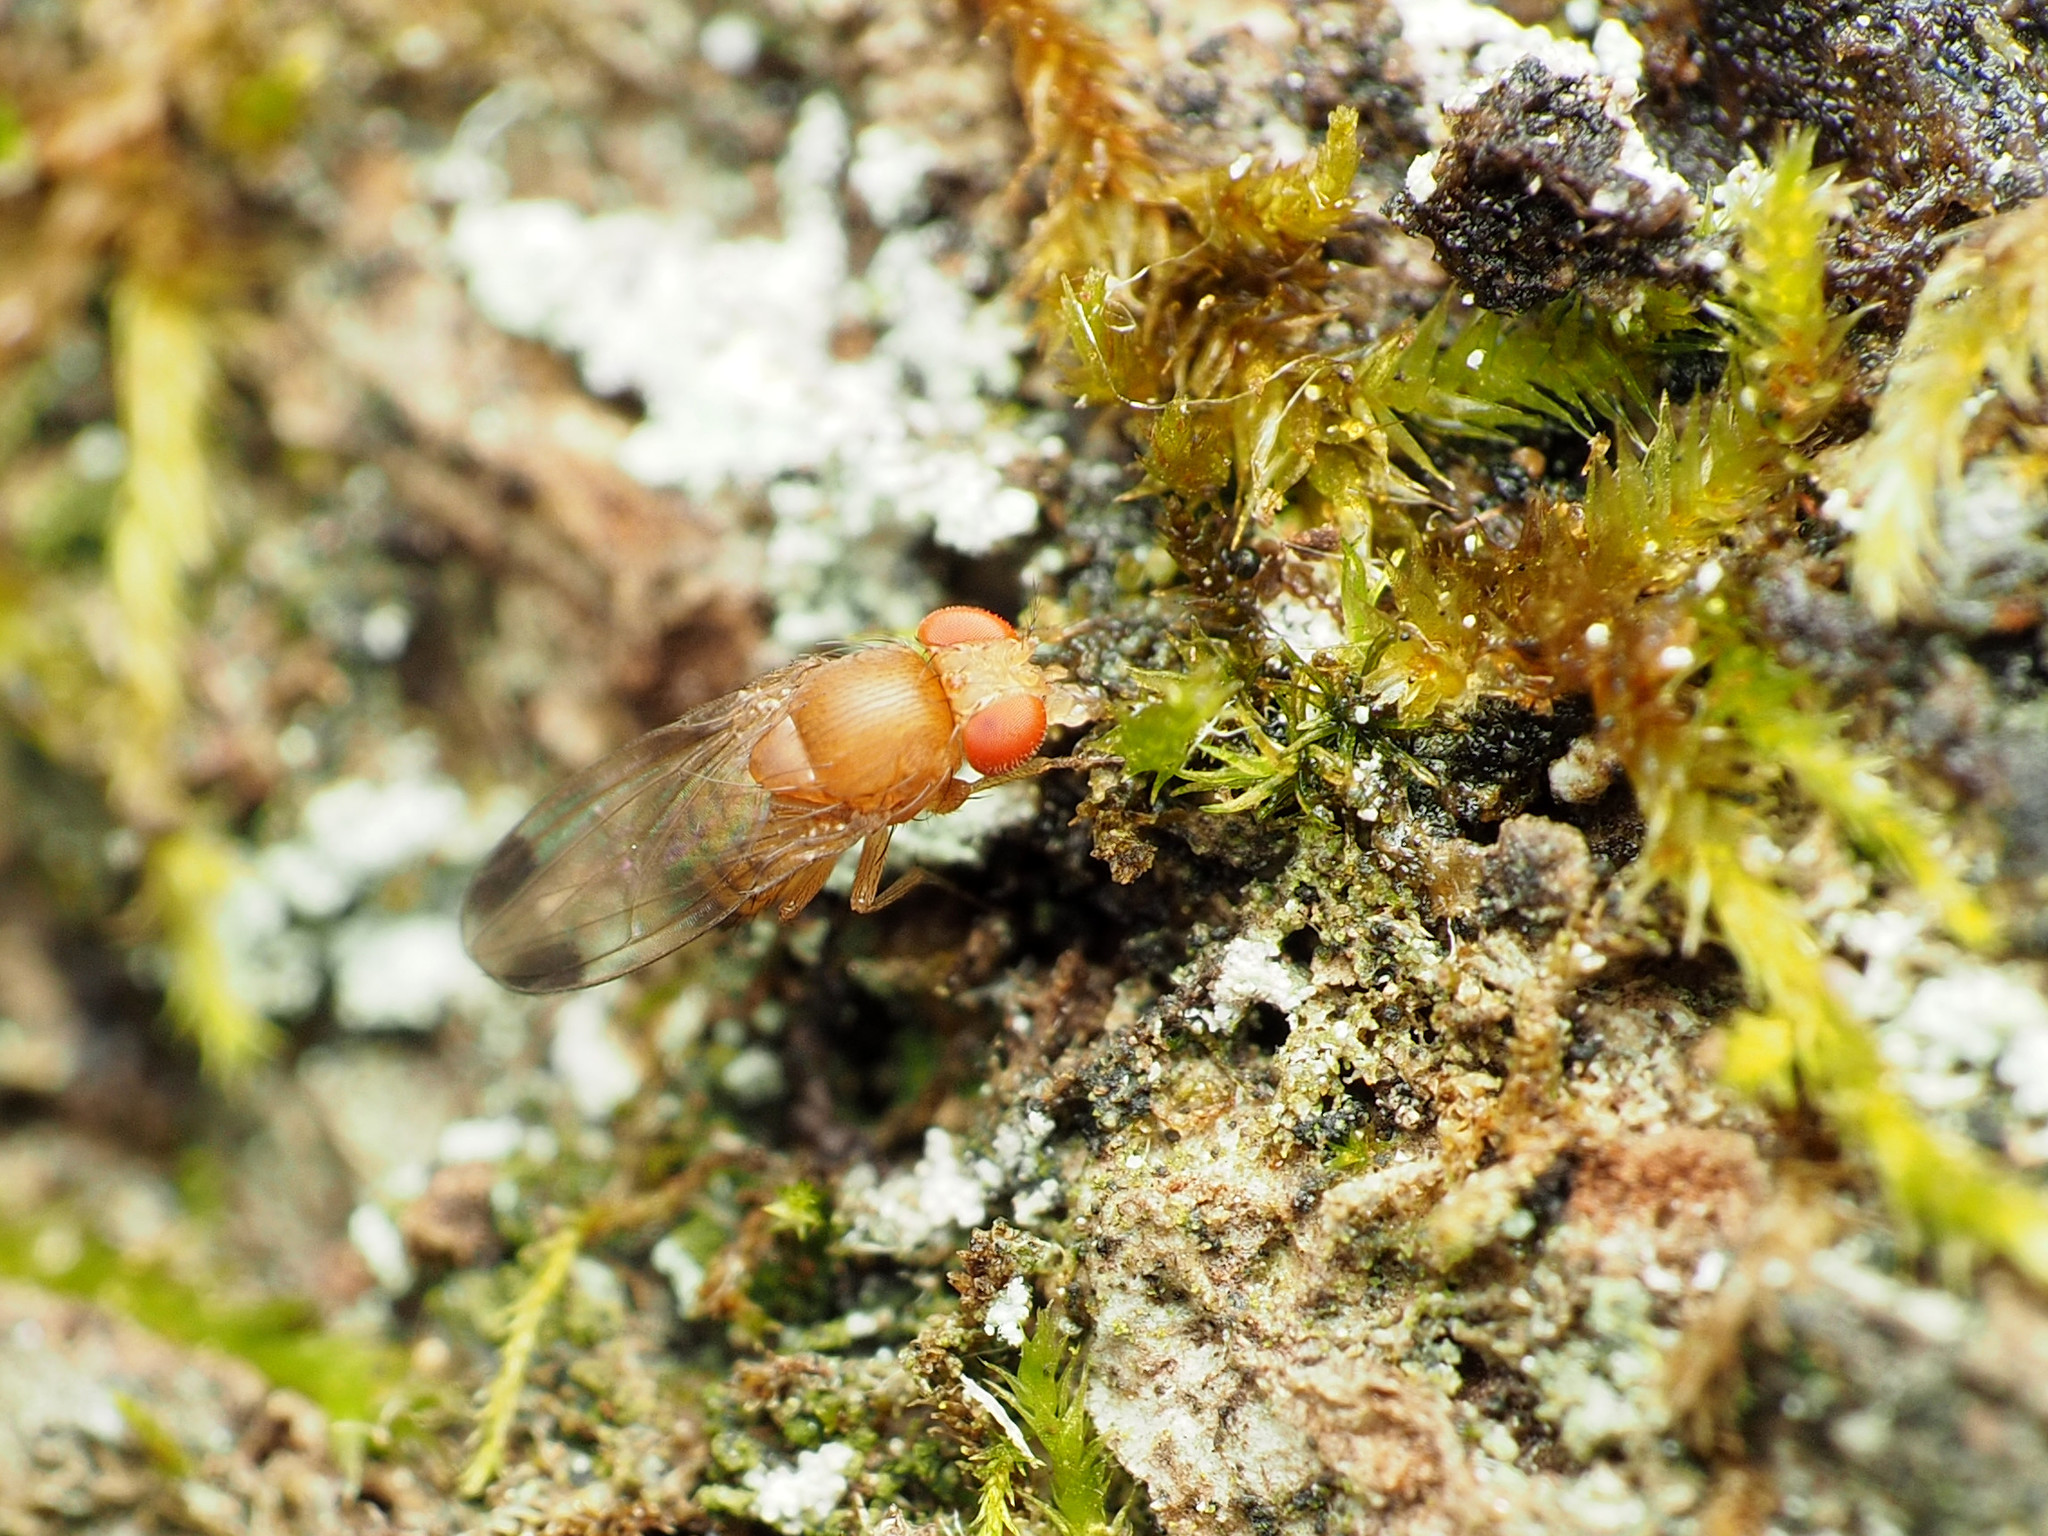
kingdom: Animalia
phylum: Arthropoda
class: Insecta
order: Diptera
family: Drosophilidae
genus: Drosophila
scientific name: Drosophila suzukii
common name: Spotted-wing drosophila
